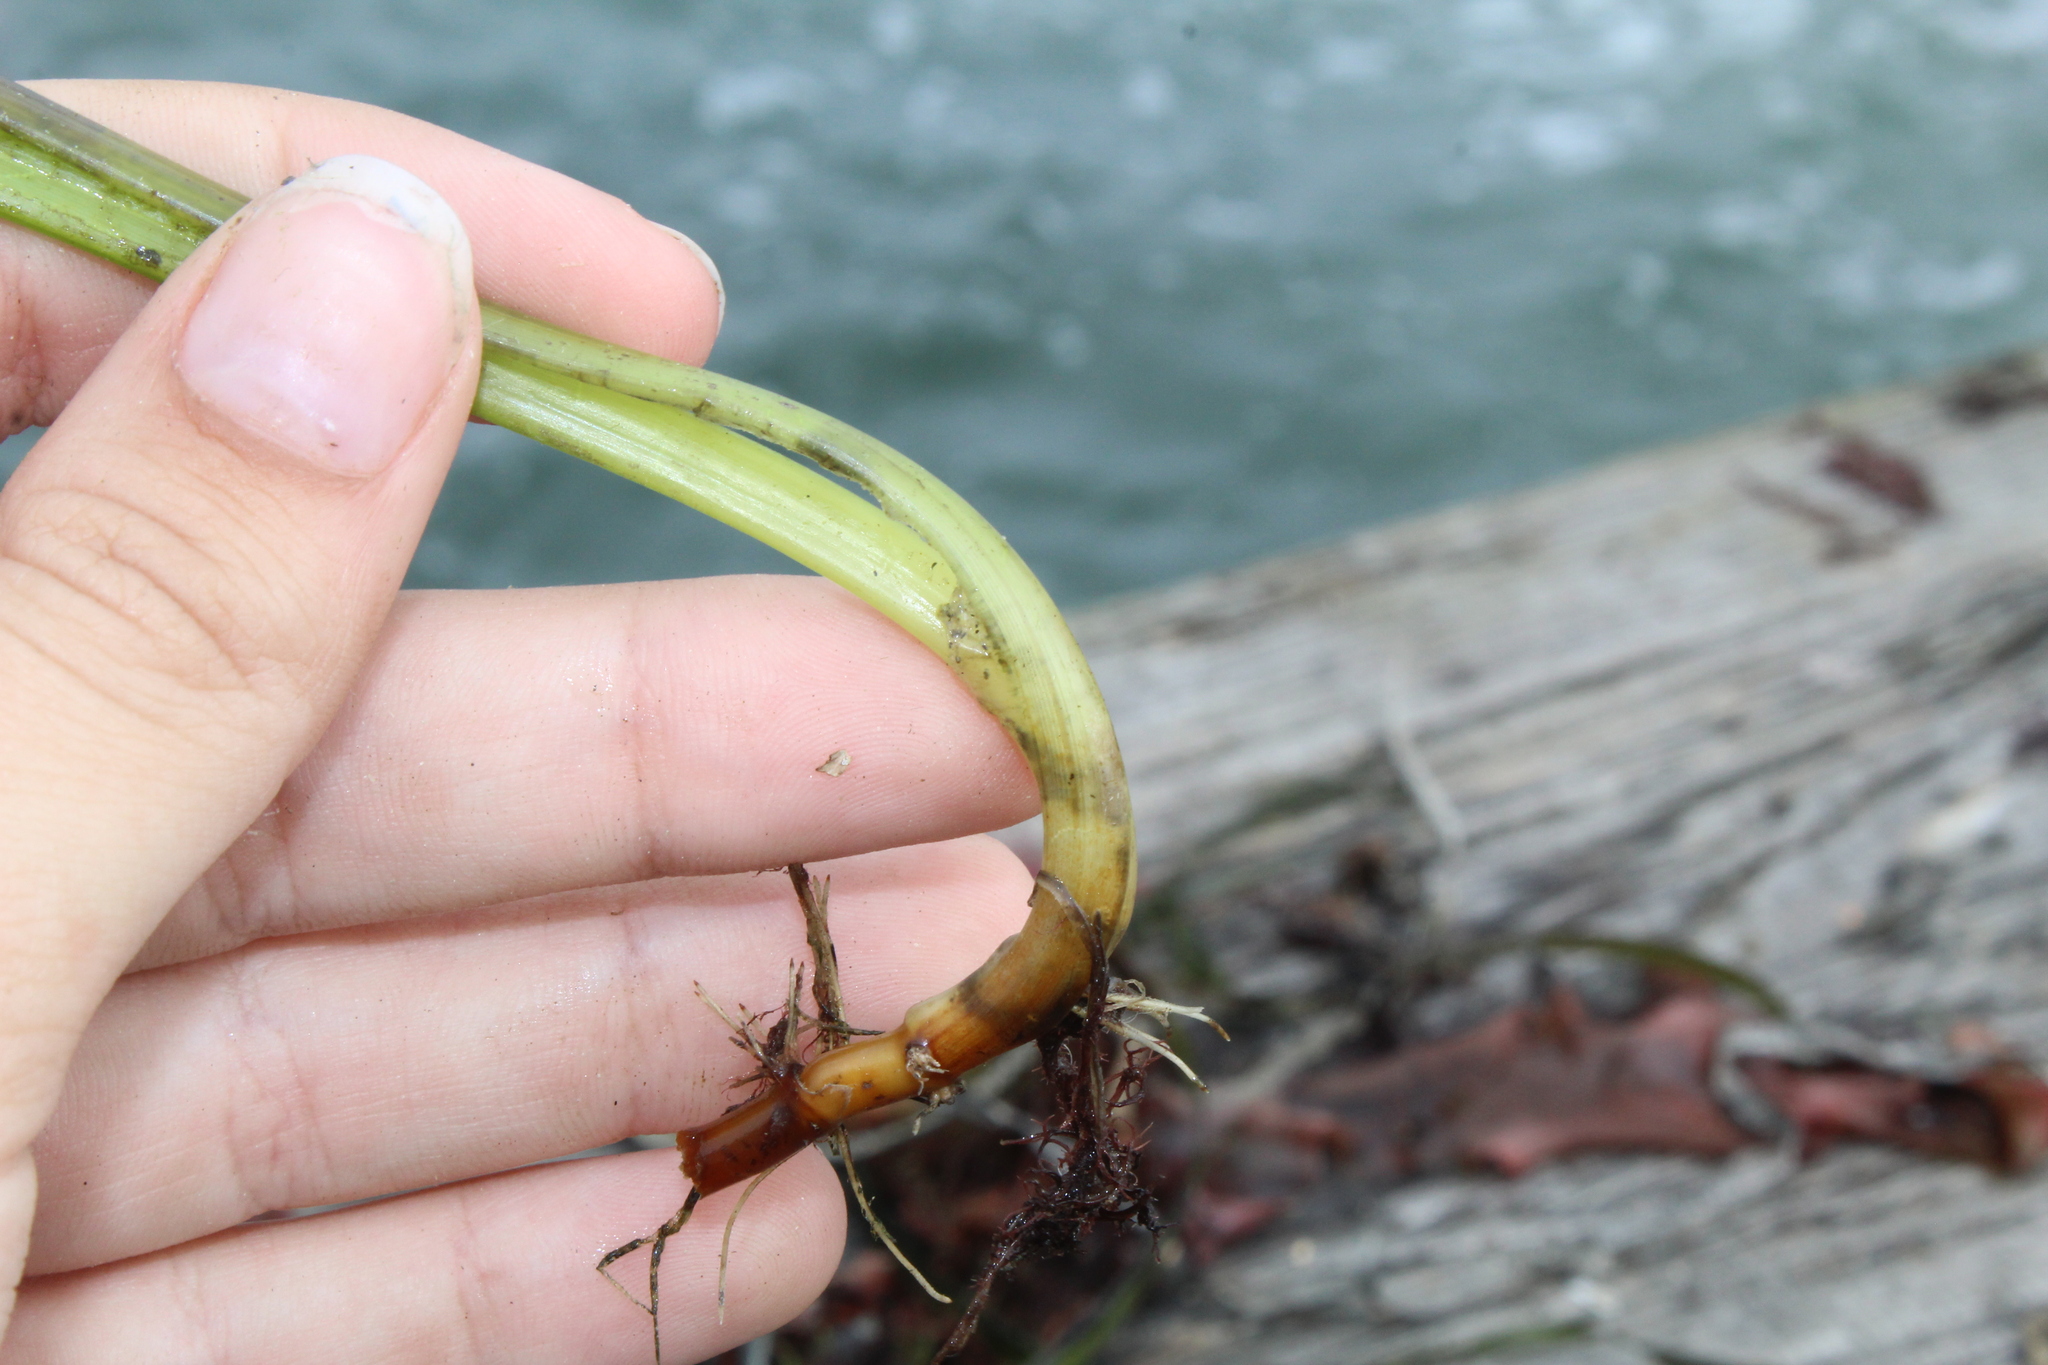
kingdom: Plantae
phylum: Tracheophyta
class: Liliopsida
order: Alismatales
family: Zosteraceae
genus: Zostera
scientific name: Zostera marina
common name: Eelgrass
